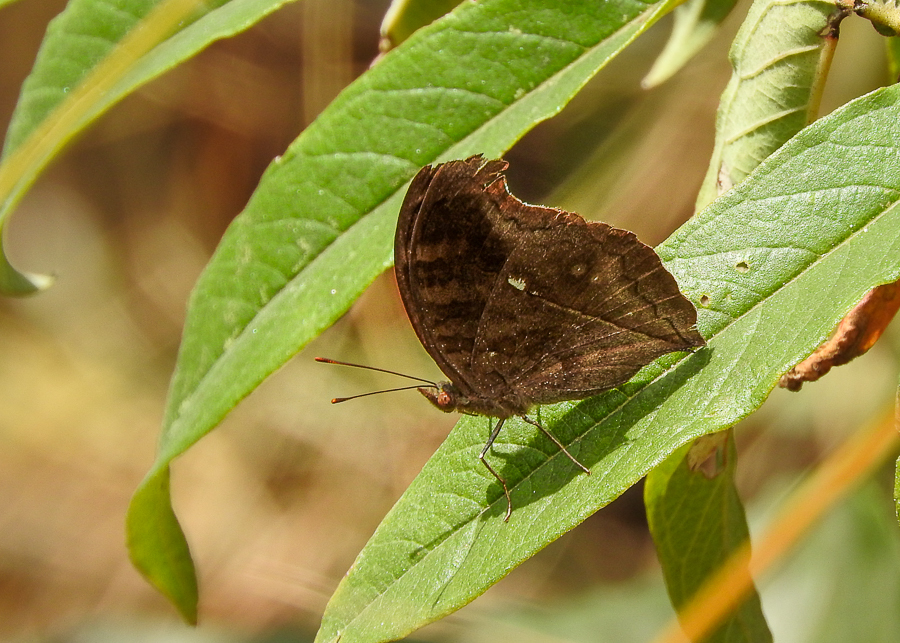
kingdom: Animalia
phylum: Arthropoda
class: Insecta
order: Lepidoptera
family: Nymphalidae
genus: Junonia
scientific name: Junonia iphita
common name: Chocolate pansy
